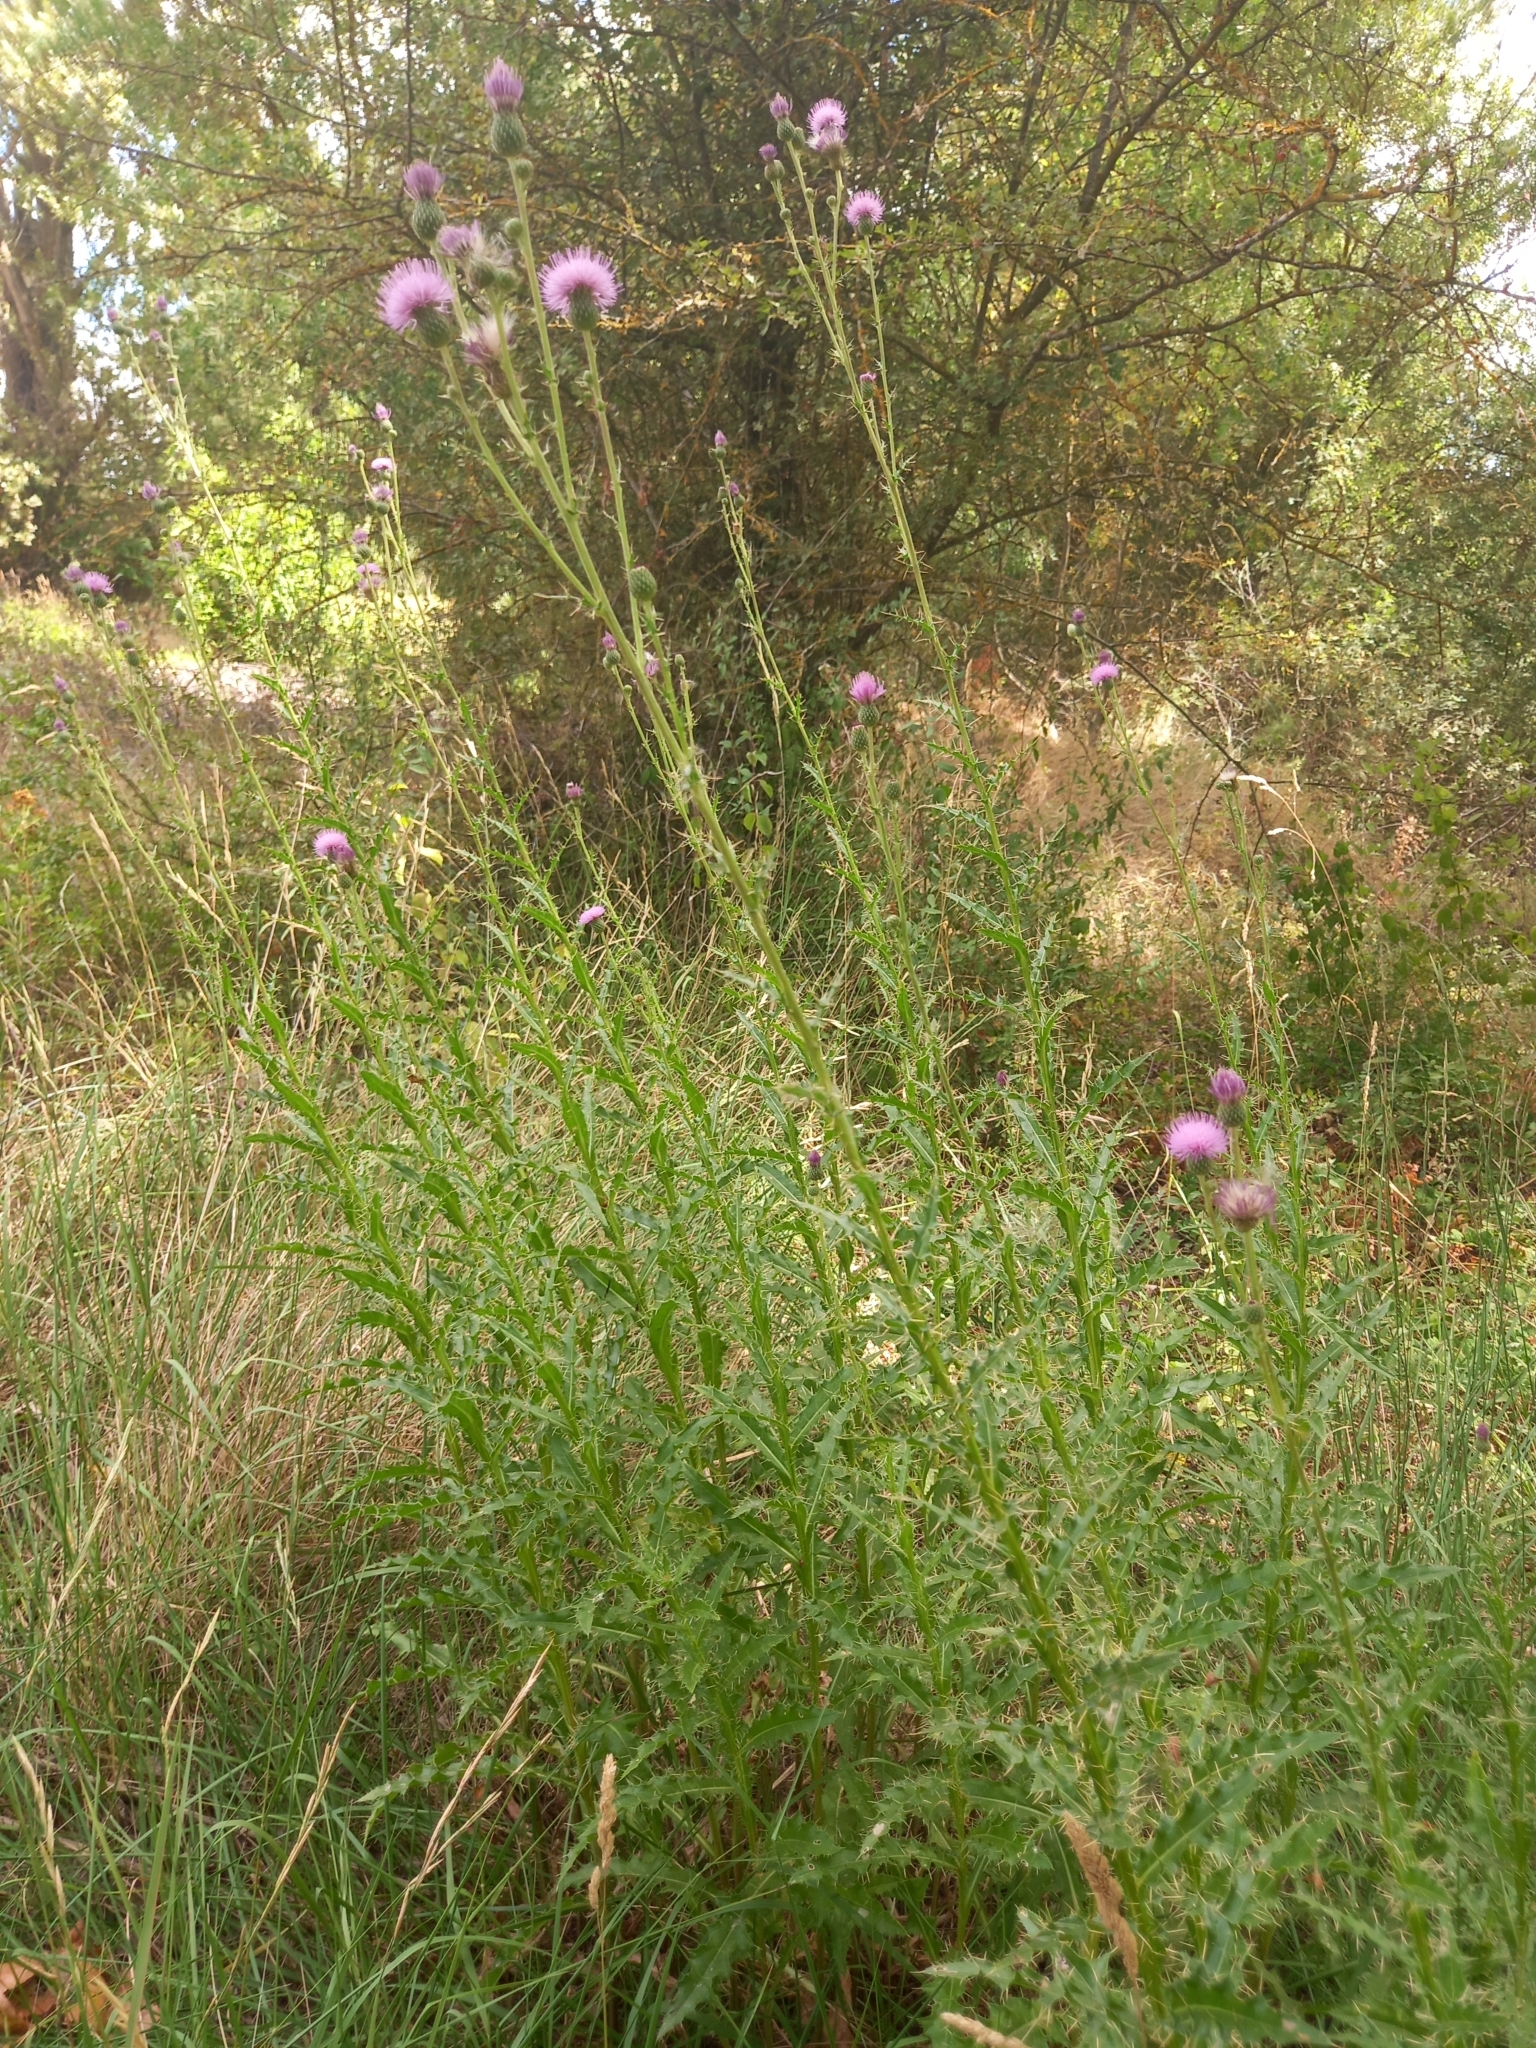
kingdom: Plantae
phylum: Tracheophyta
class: Magnoliopsida
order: Asterales
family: Asteraceae
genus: Cirsium
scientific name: Cirsium arvense
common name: Creeping thistle
